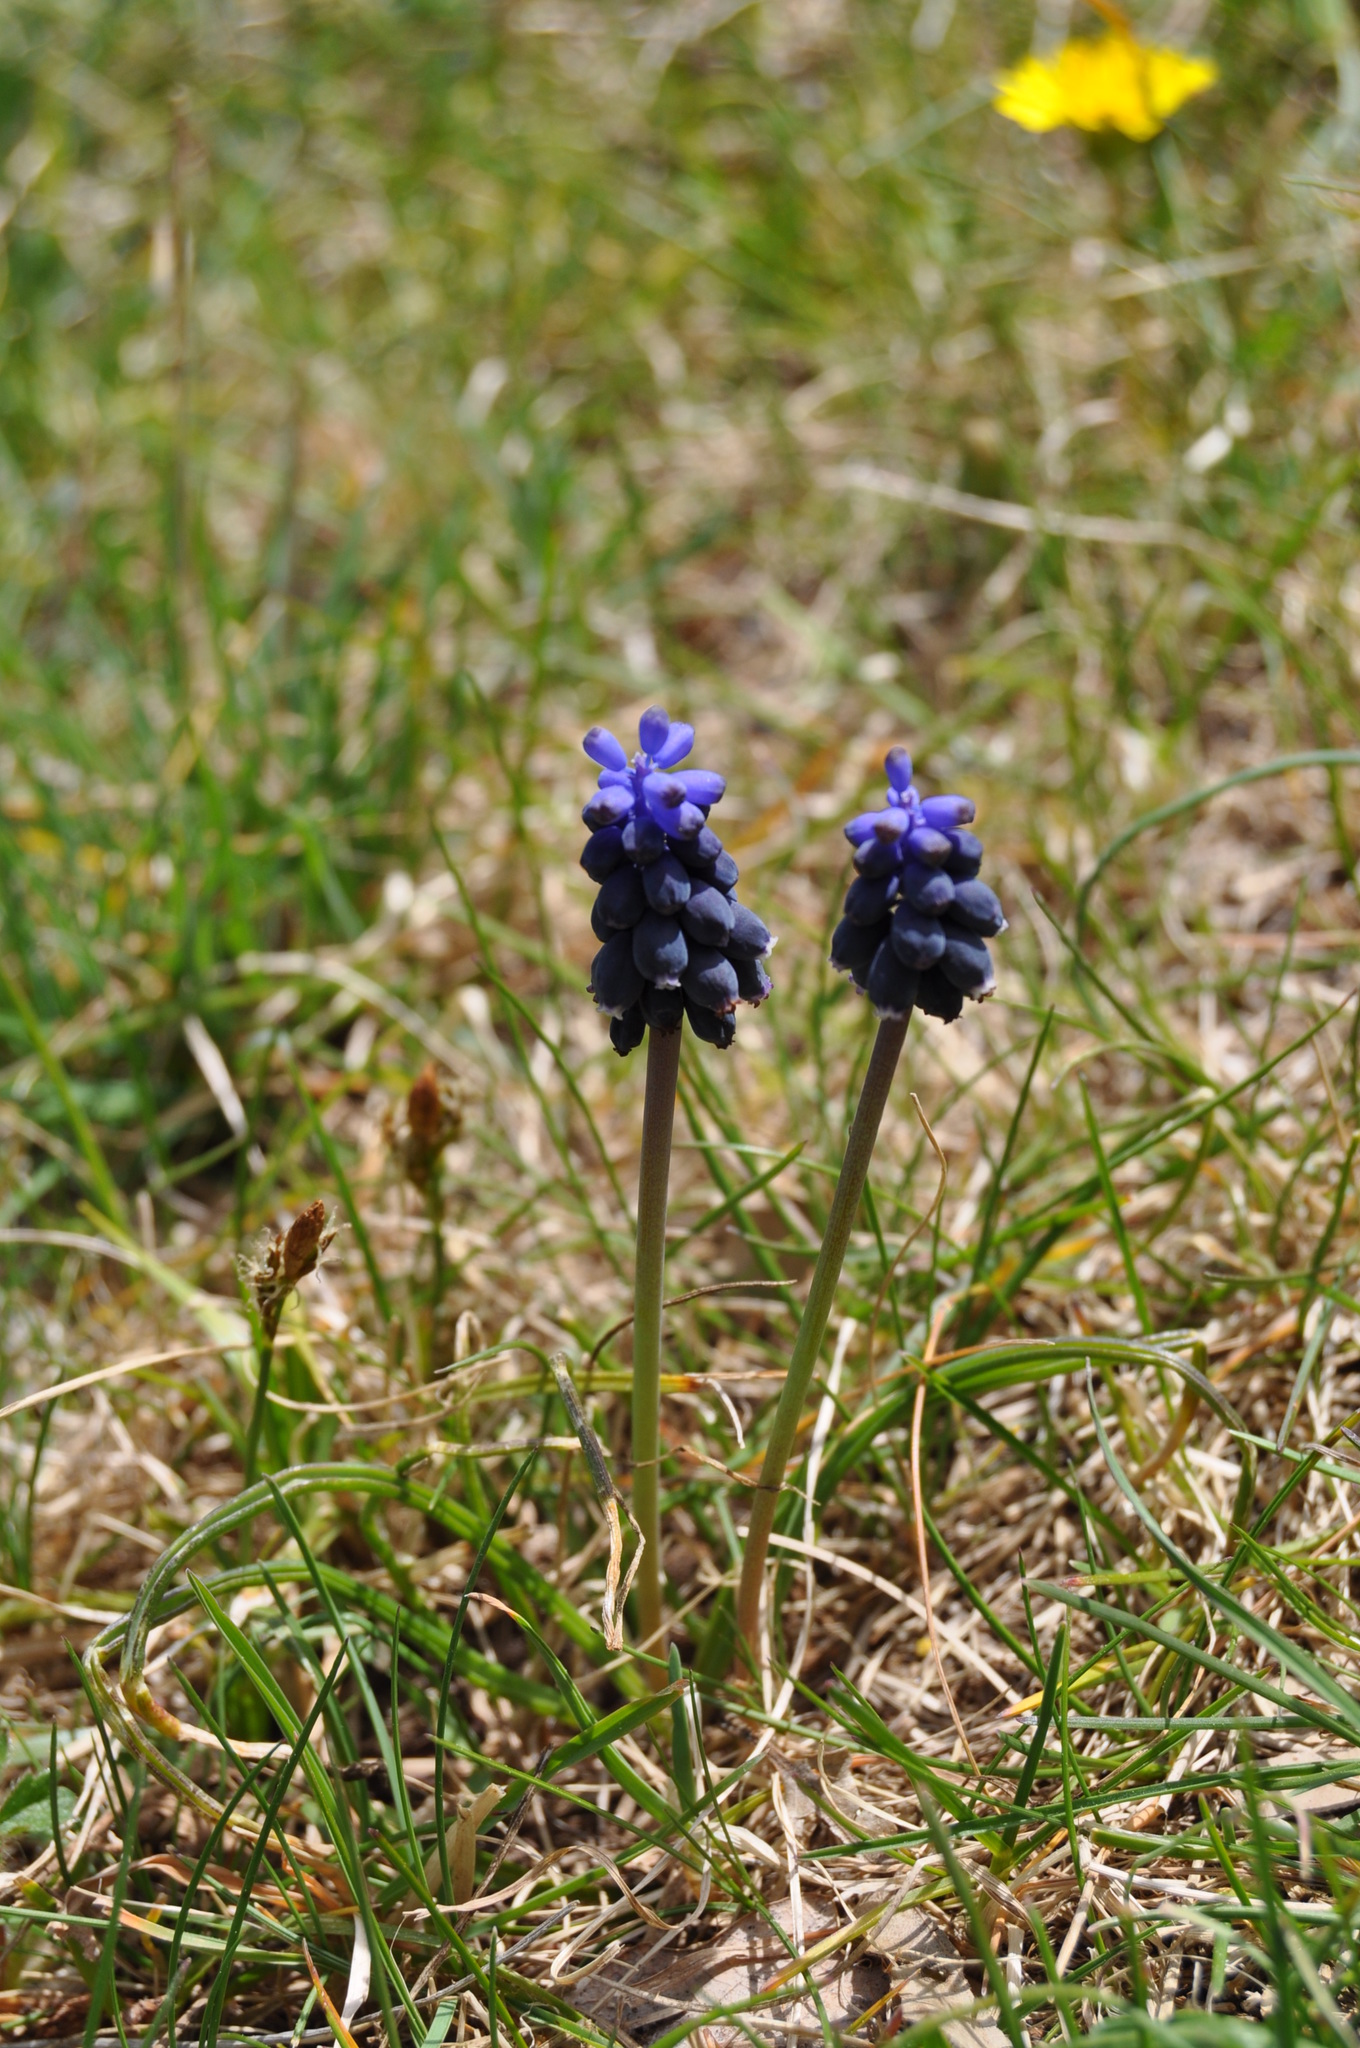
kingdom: Plantae
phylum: Tracheophyta
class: Liliopsida
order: Asparagales
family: Asparagaceae
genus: Muscari
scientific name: Muscari neglectum
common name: Grape-hyacinth
